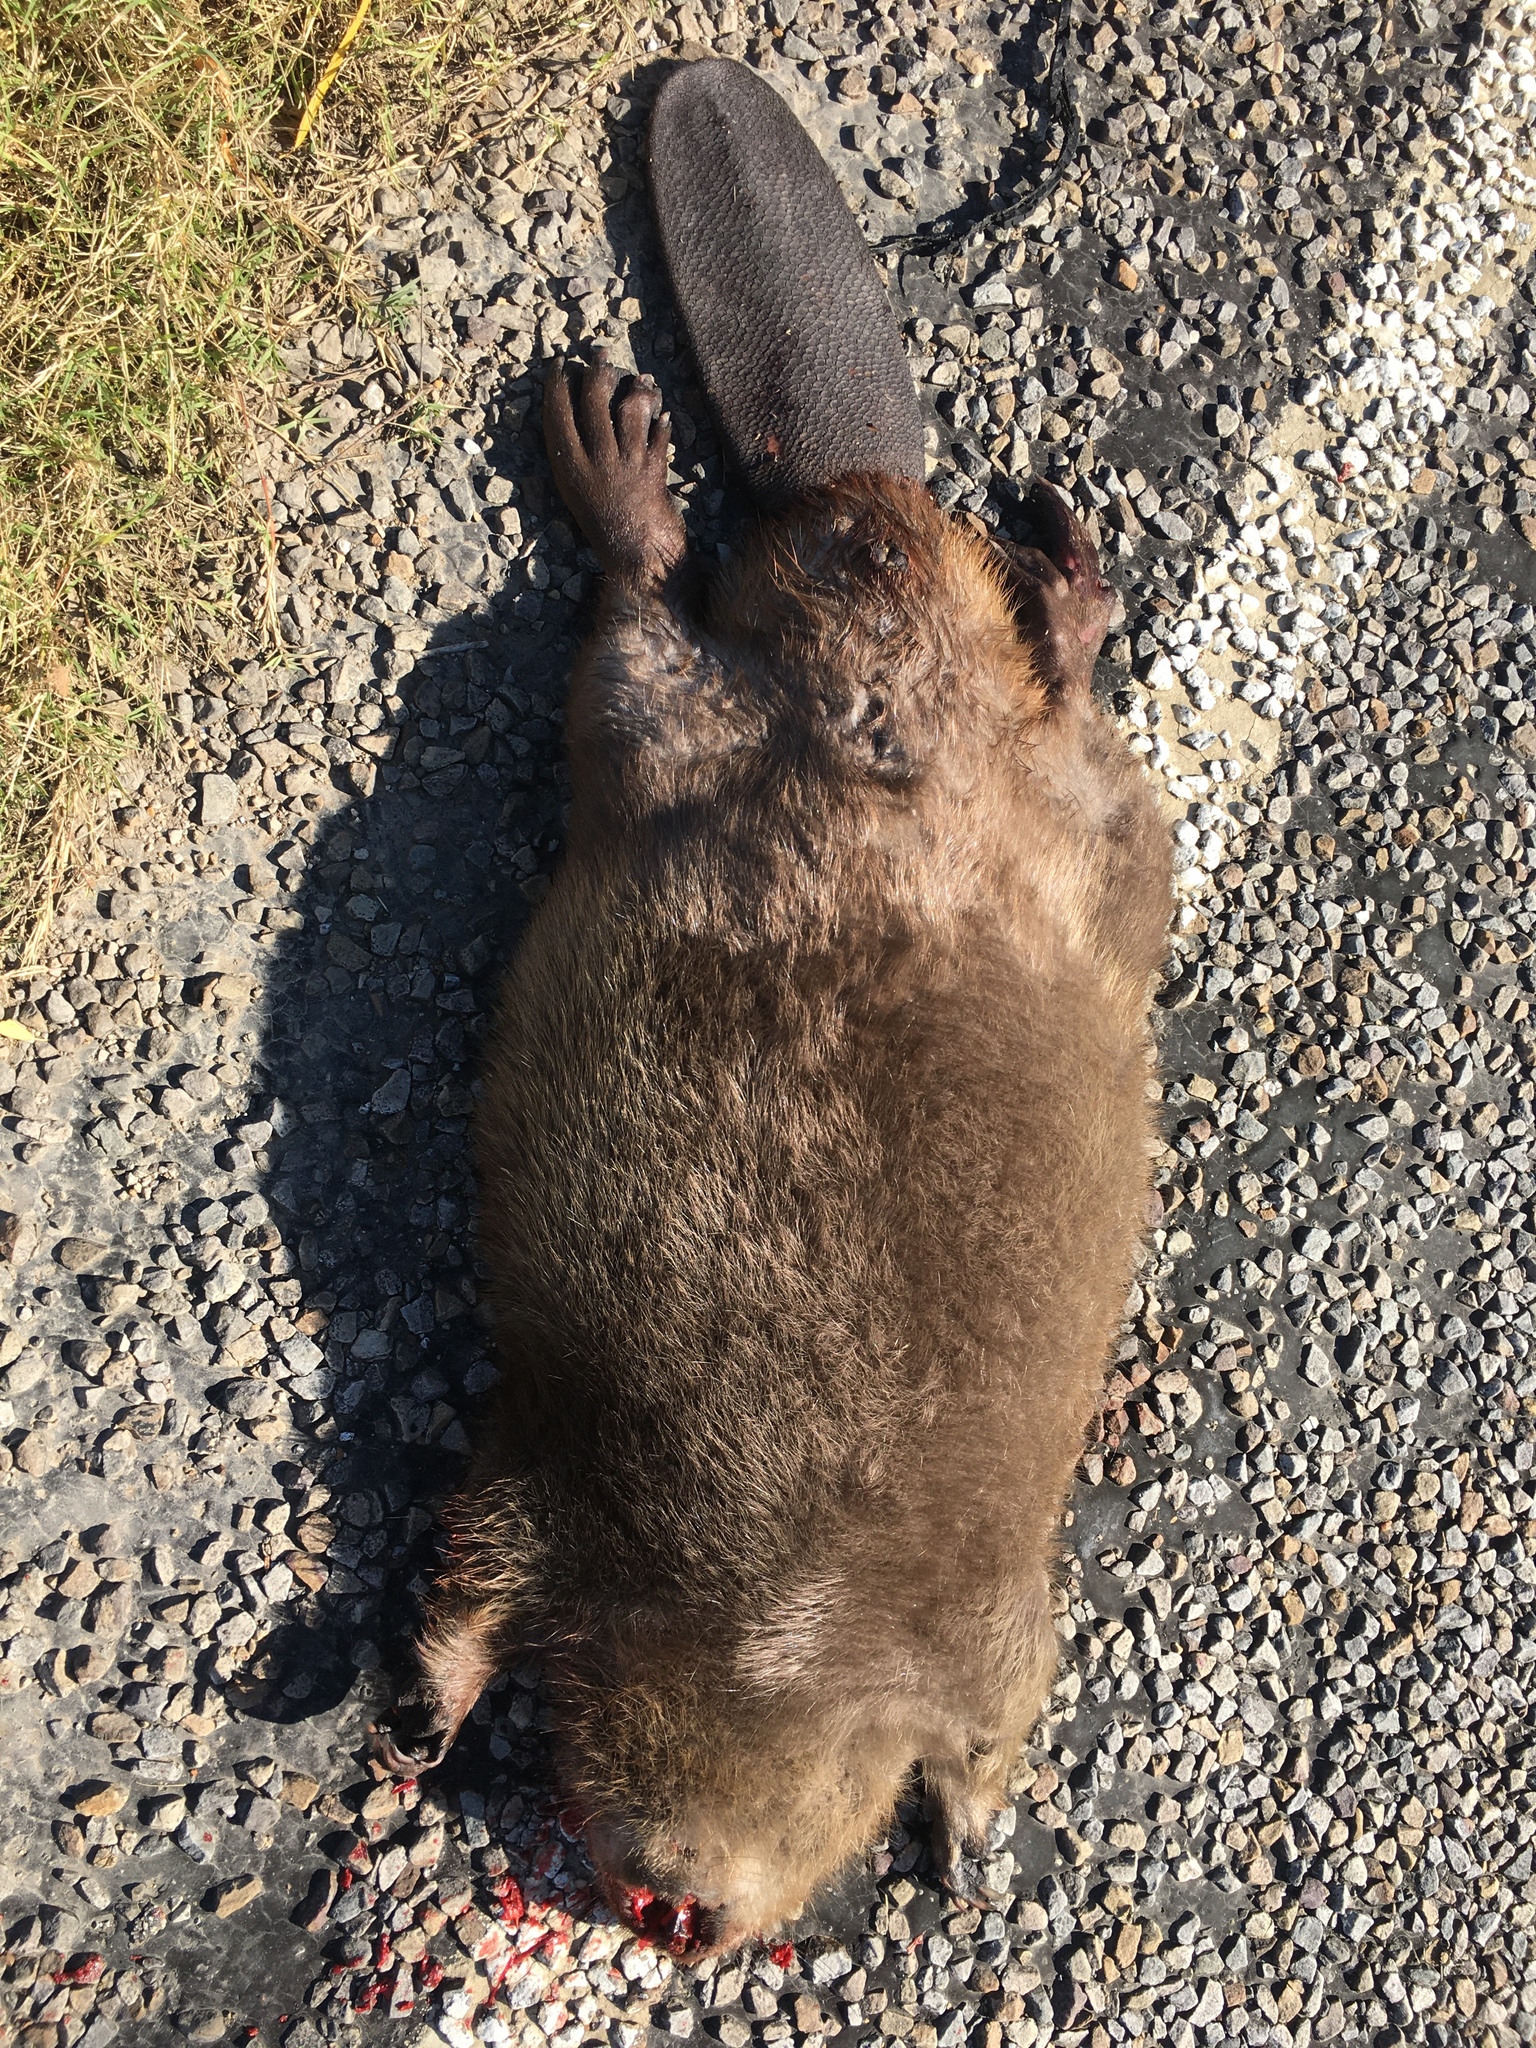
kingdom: Animalia
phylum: Chordata
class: Mammalia
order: Rodentia
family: Castoridae
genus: Castor
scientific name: Castor canadensis
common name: American beaver
